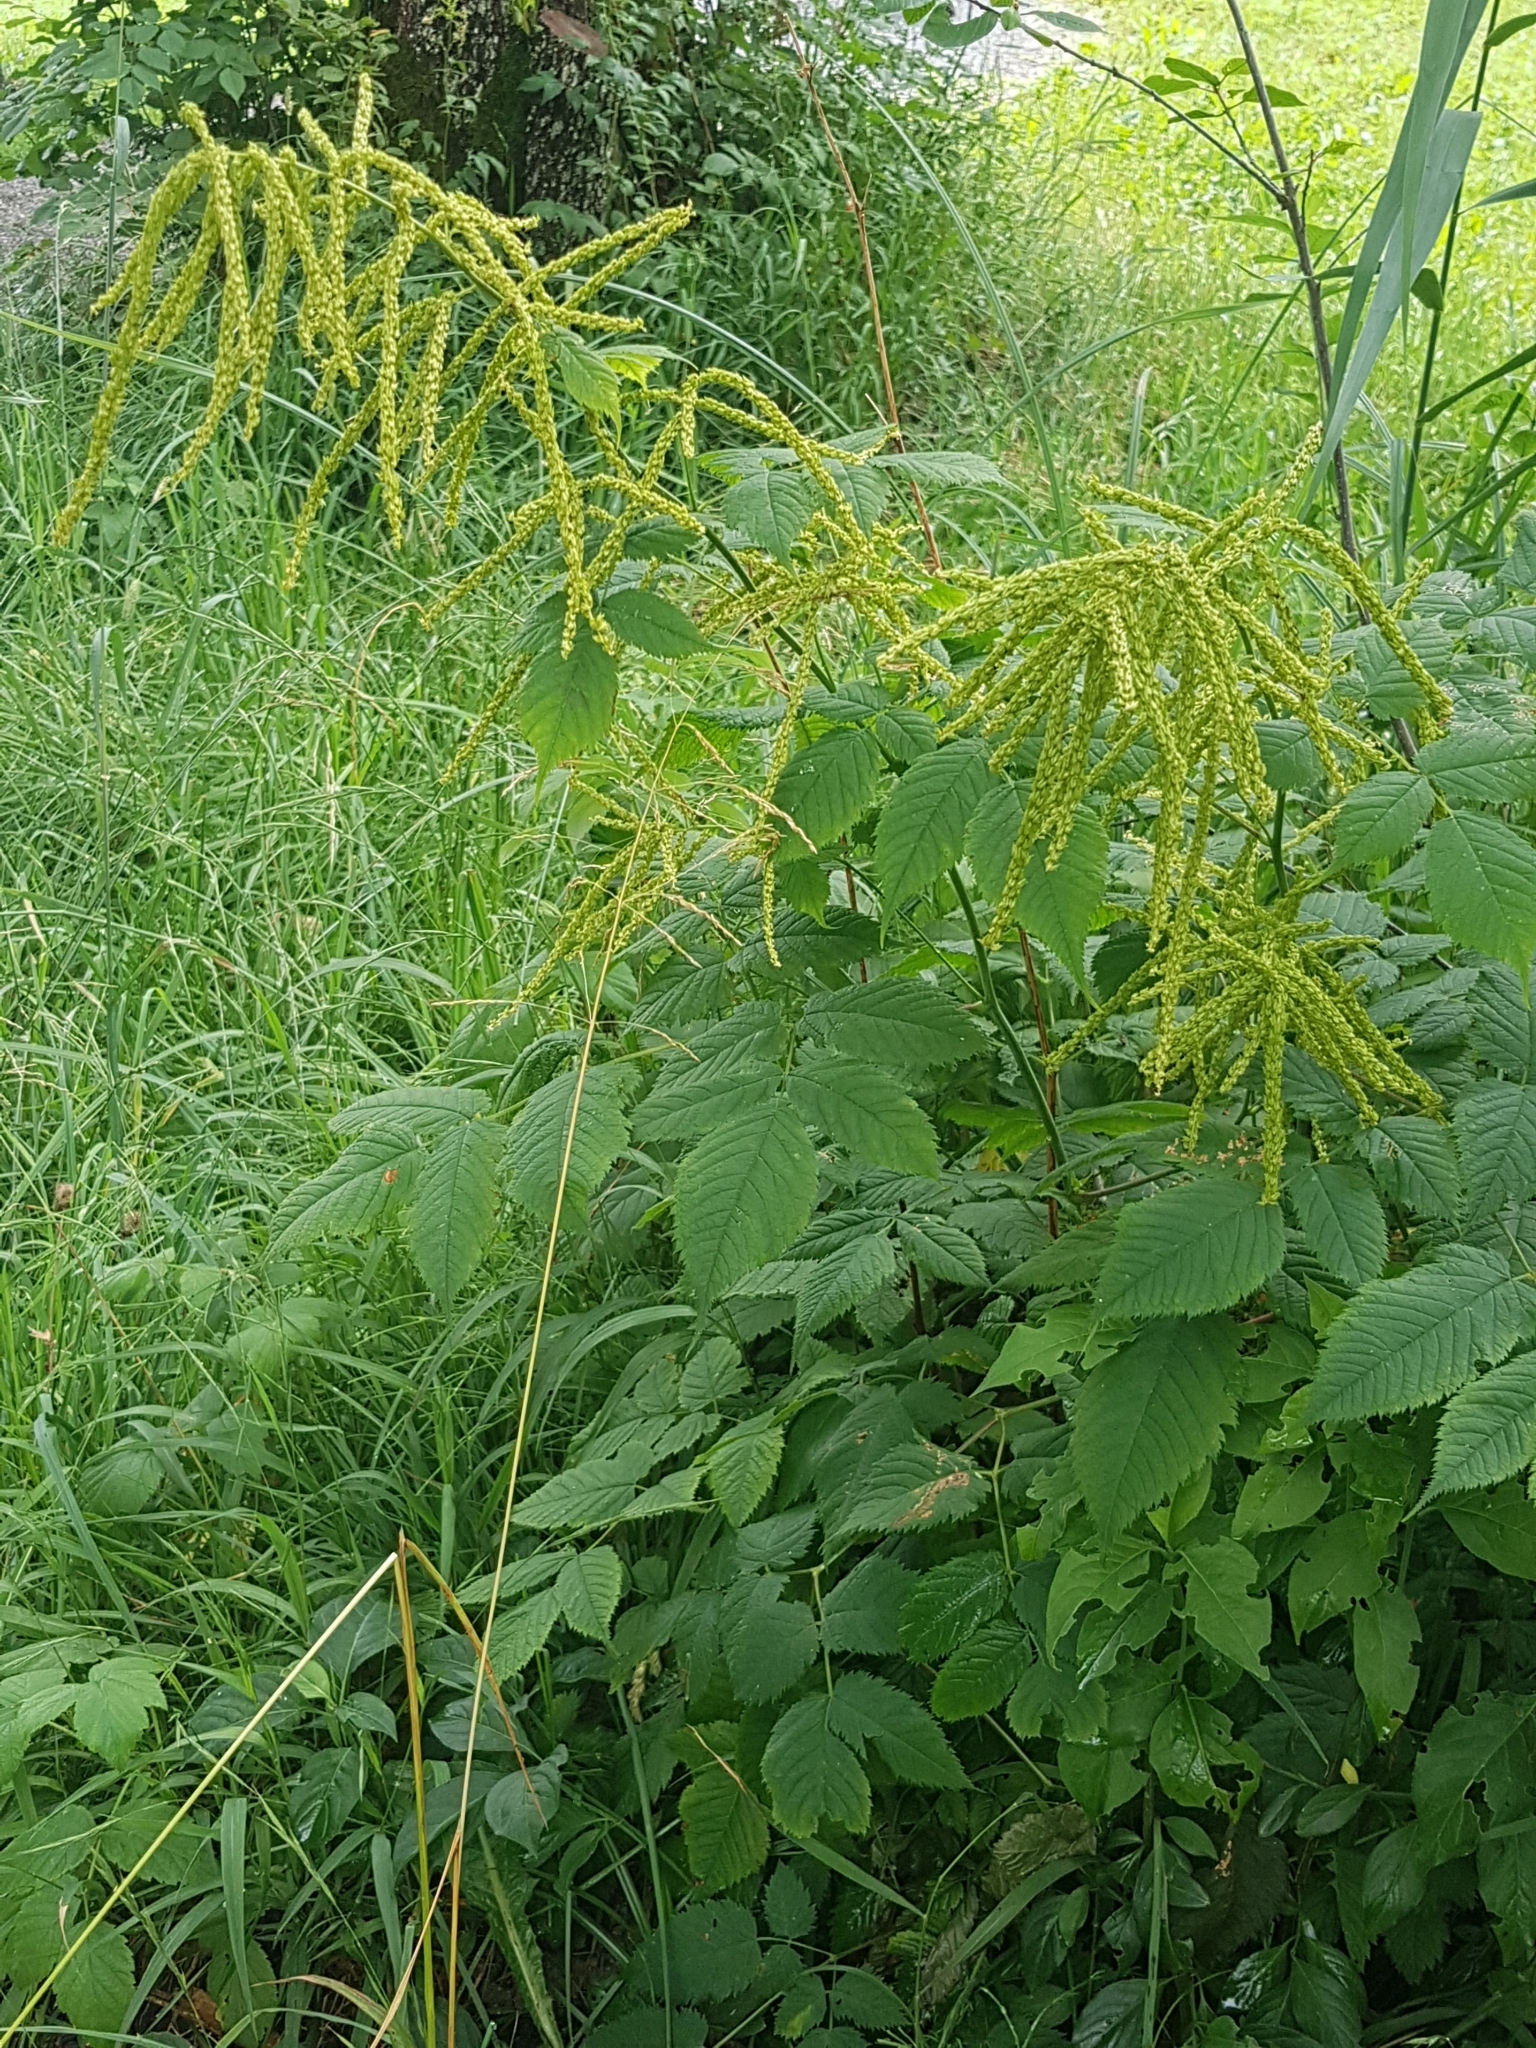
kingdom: Plantae
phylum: Tracheophyta
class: Magnoliopsida
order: Rosales
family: Rosaceae
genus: Aruncus
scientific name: Aruncus dioicus
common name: Buck's-beard
